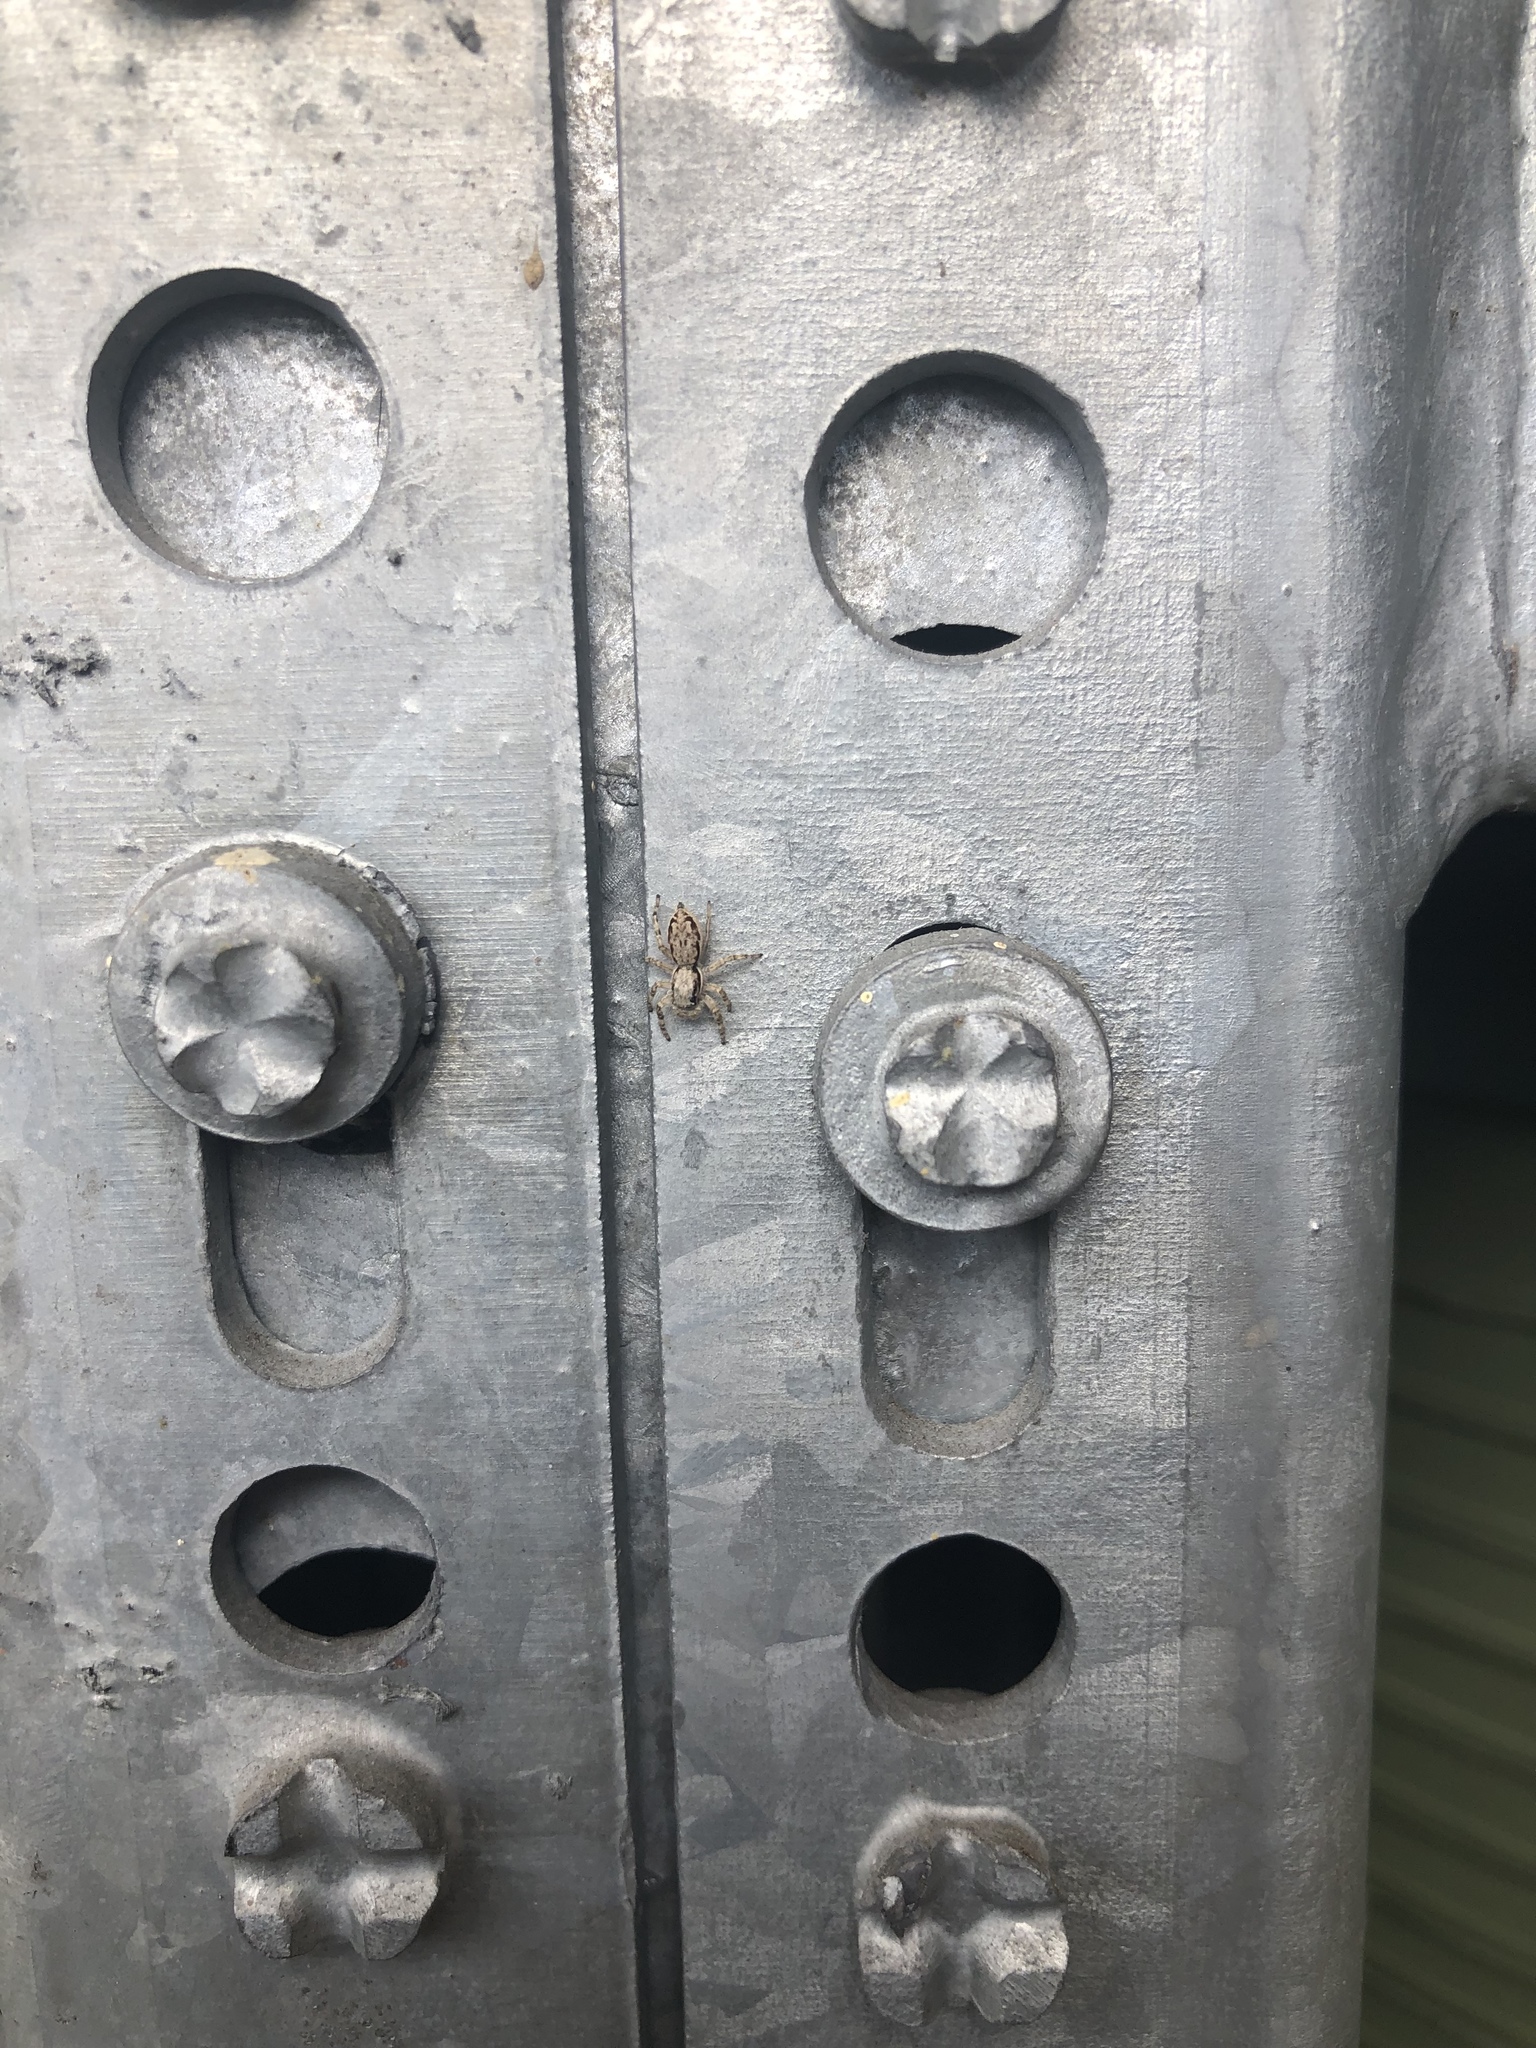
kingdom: Animalia
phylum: Arthropoda
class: Arachnida
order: Araneae
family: Salticidae
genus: Menemerus
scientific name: Menemerus bivittatus
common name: Gray wall jumper
